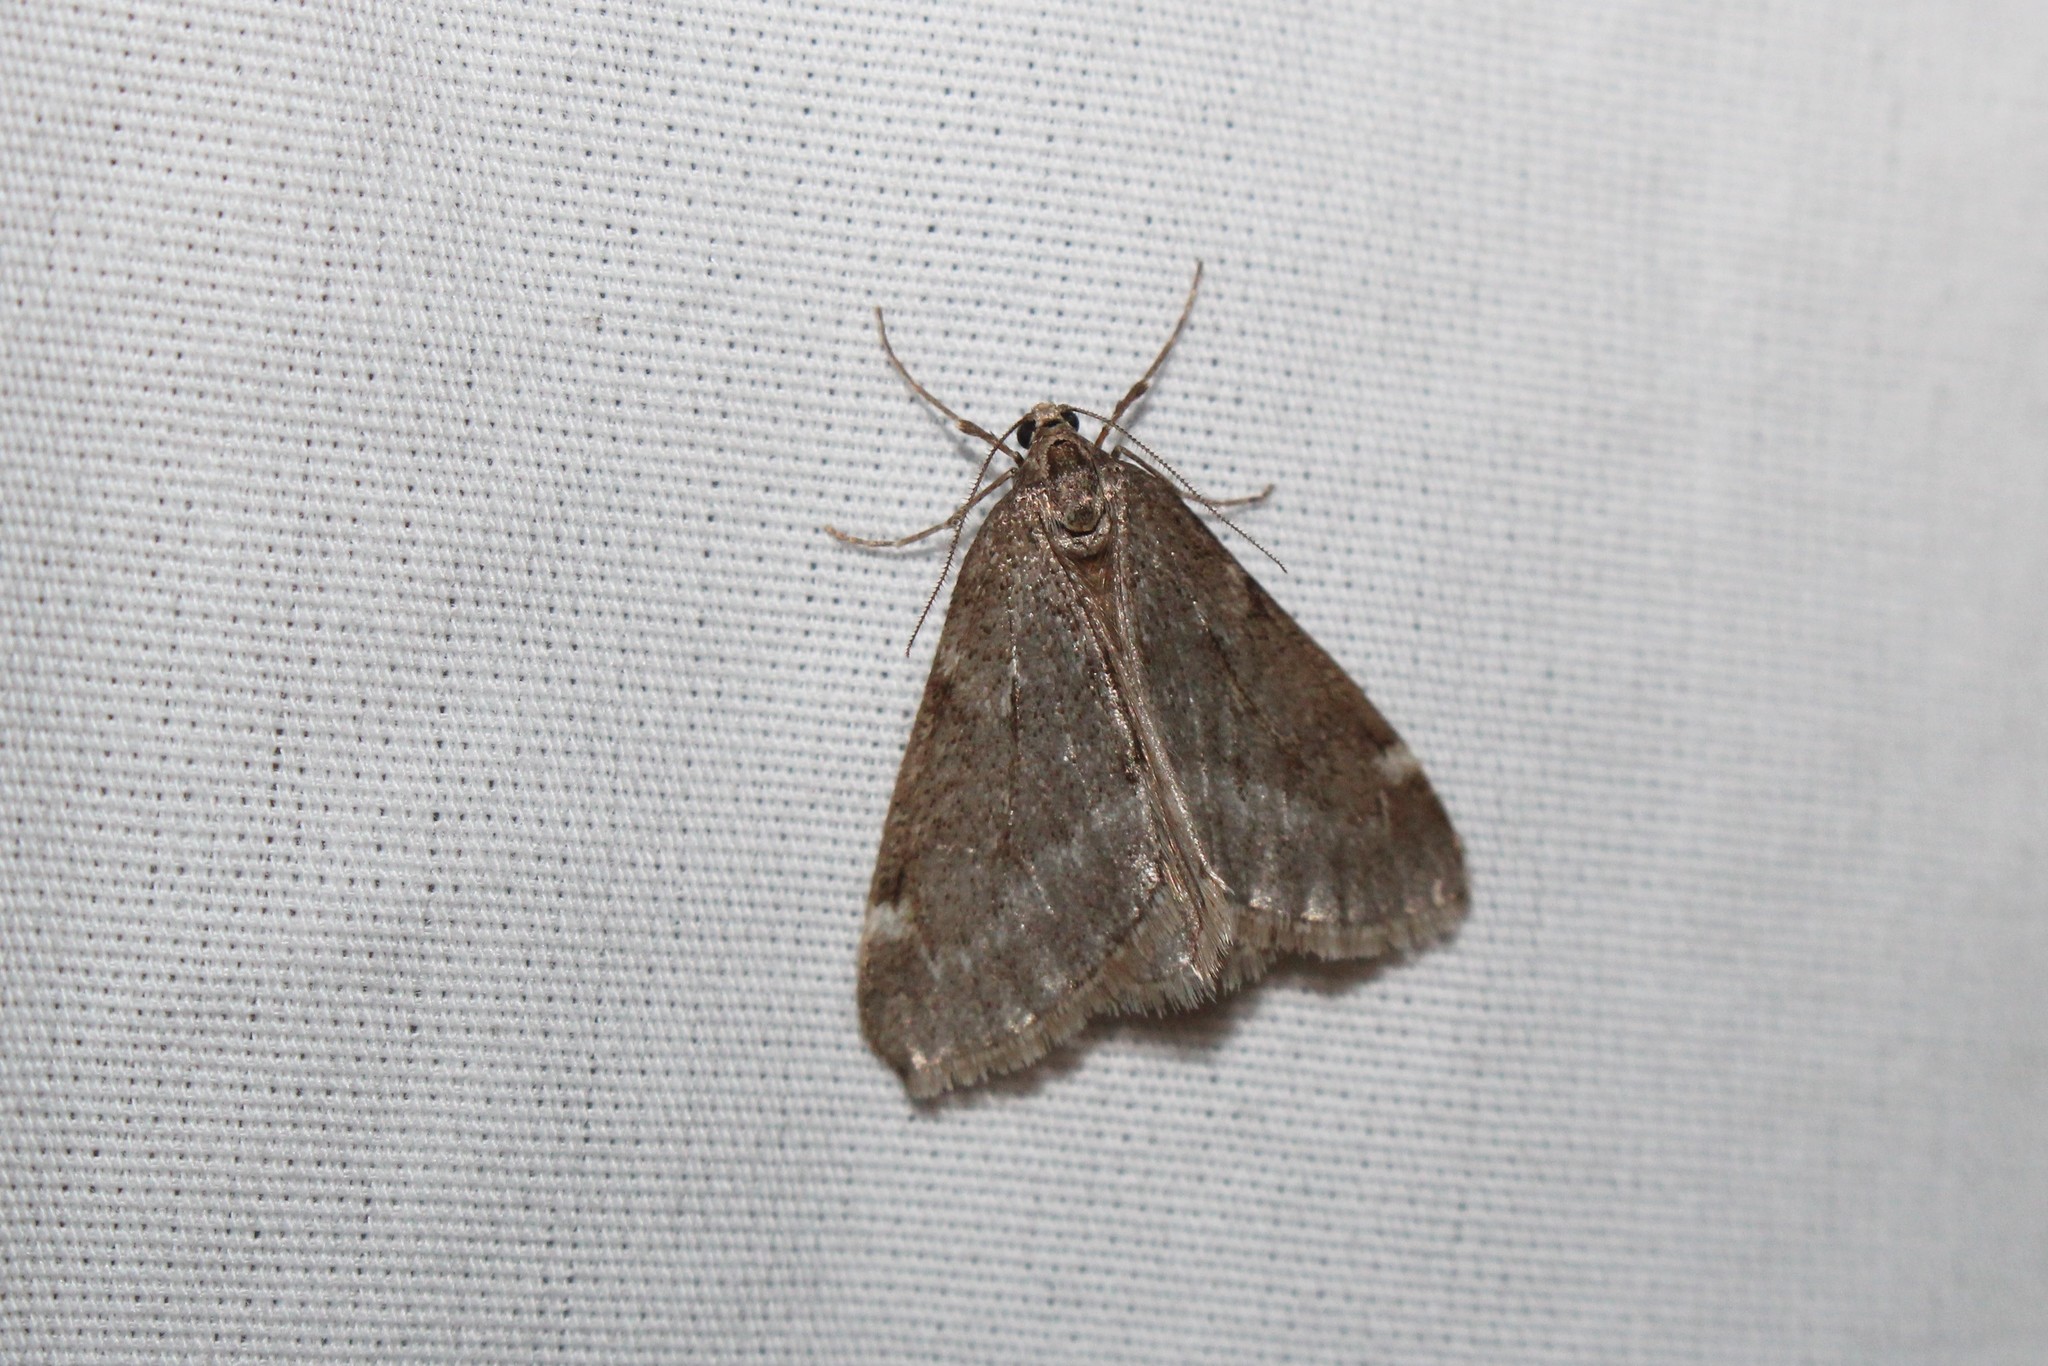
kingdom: Animalia
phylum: Arthropoda
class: Insecta
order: Lepidoptera
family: Geometridae
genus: Alsophila
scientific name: Alsophila pometaria
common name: Fall cankerworm
